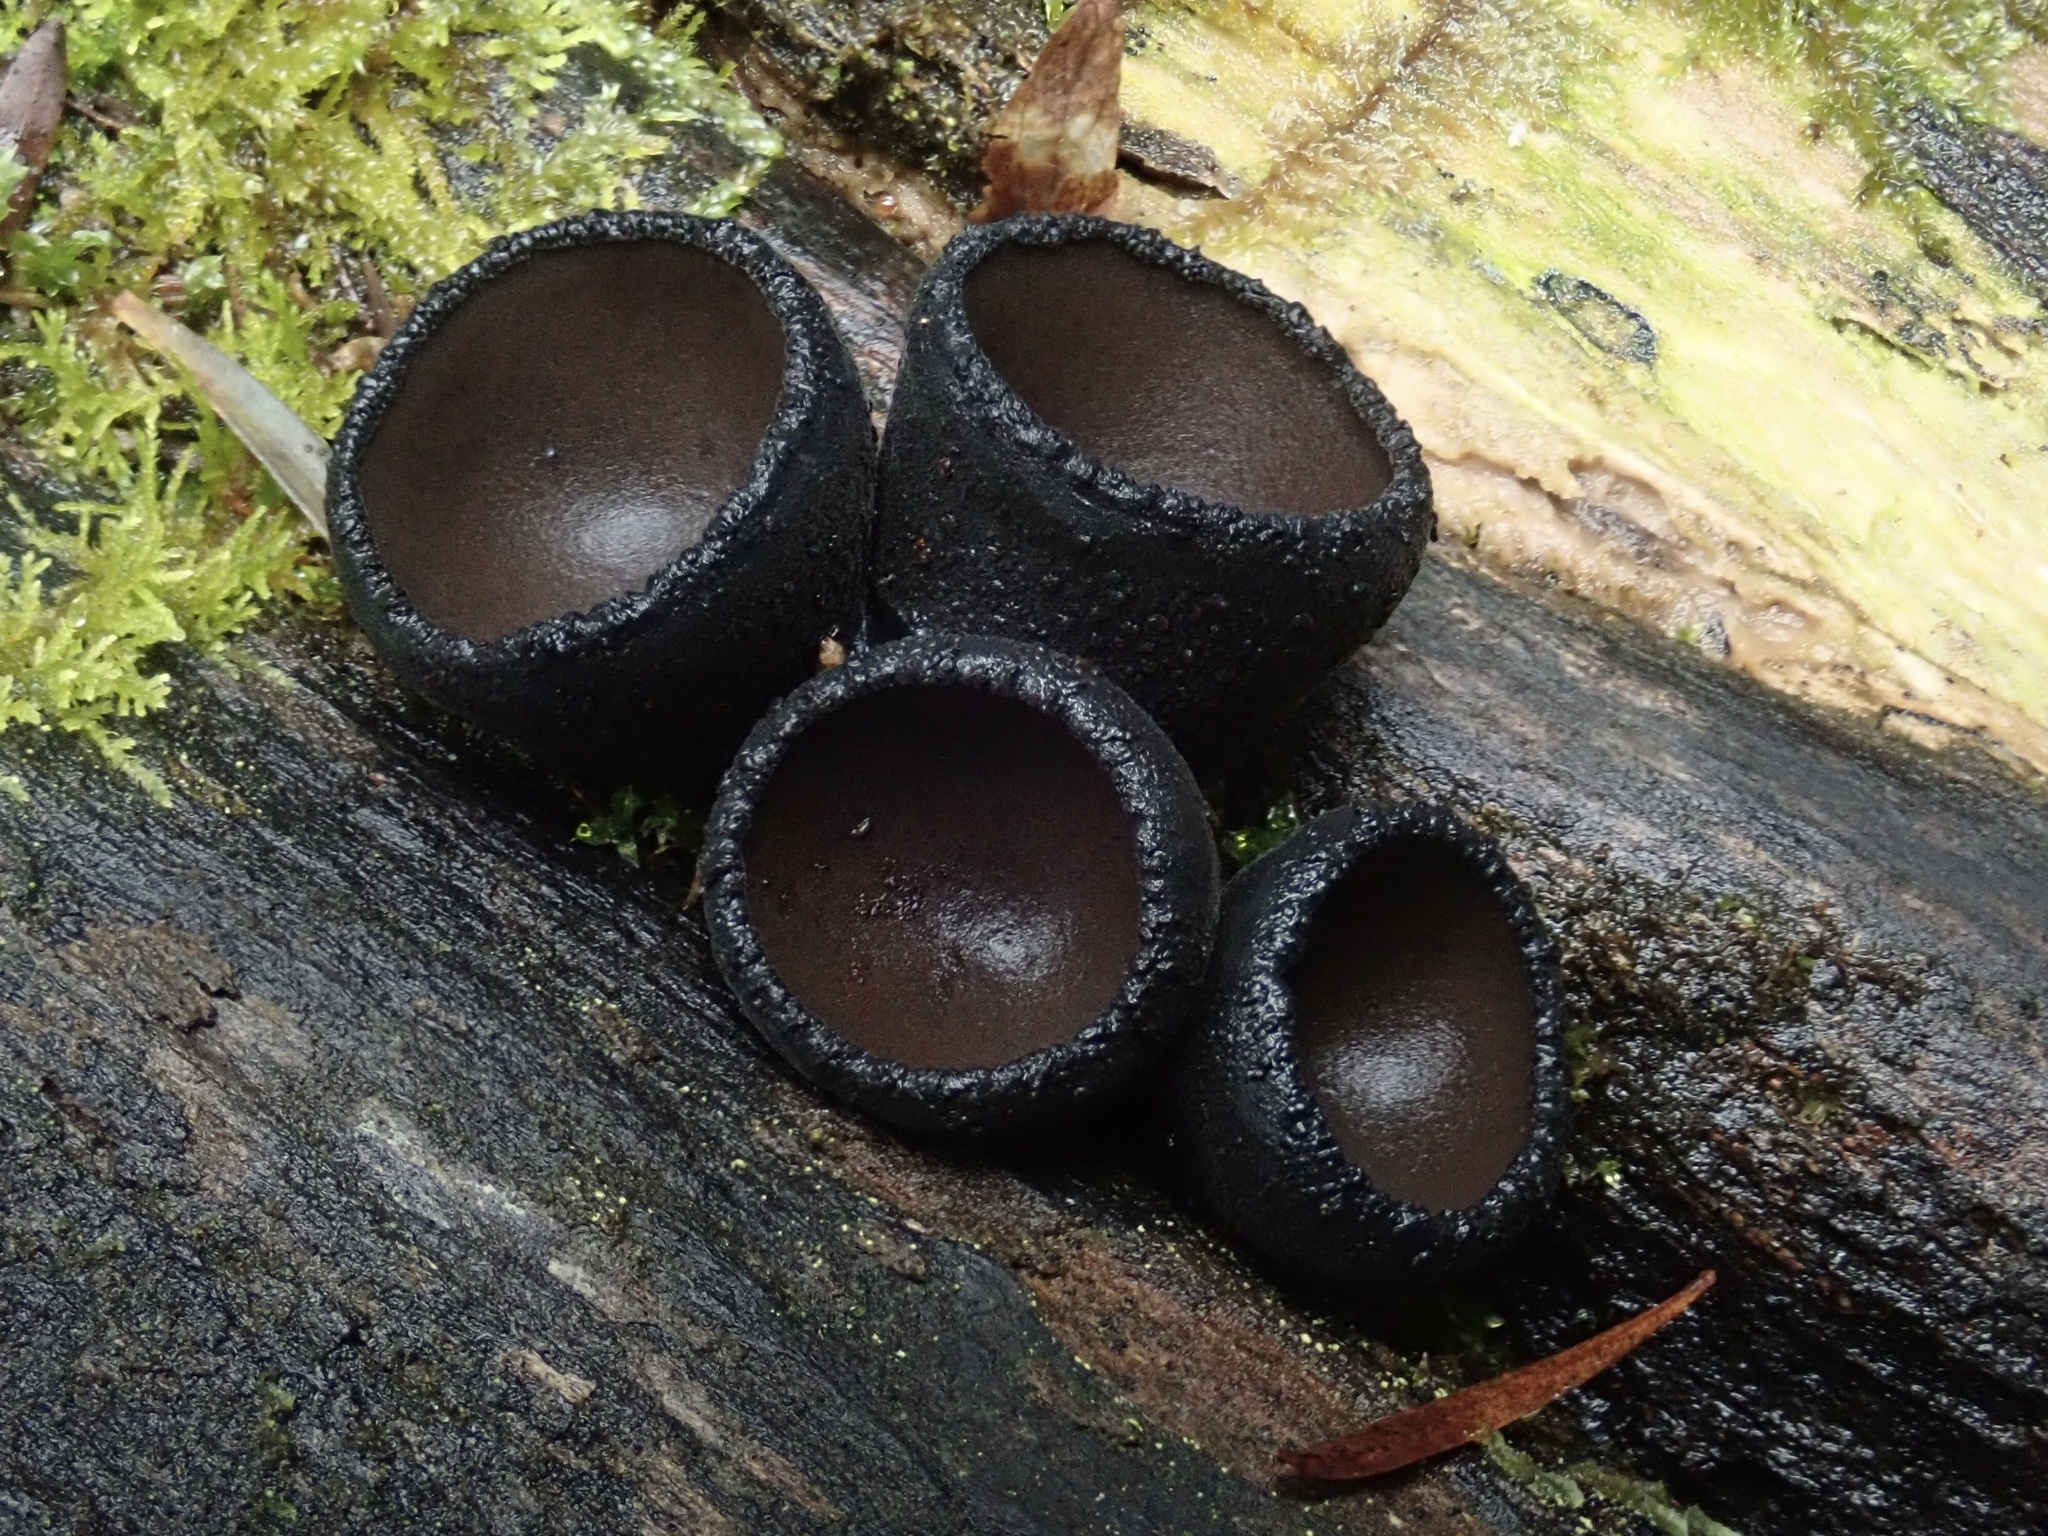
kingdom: Fungi
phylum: Ascomycota
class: Pezizomycetes
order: Pezizales
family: Sarcosomataceae
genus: Plectania
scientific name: Plectania campylospora
